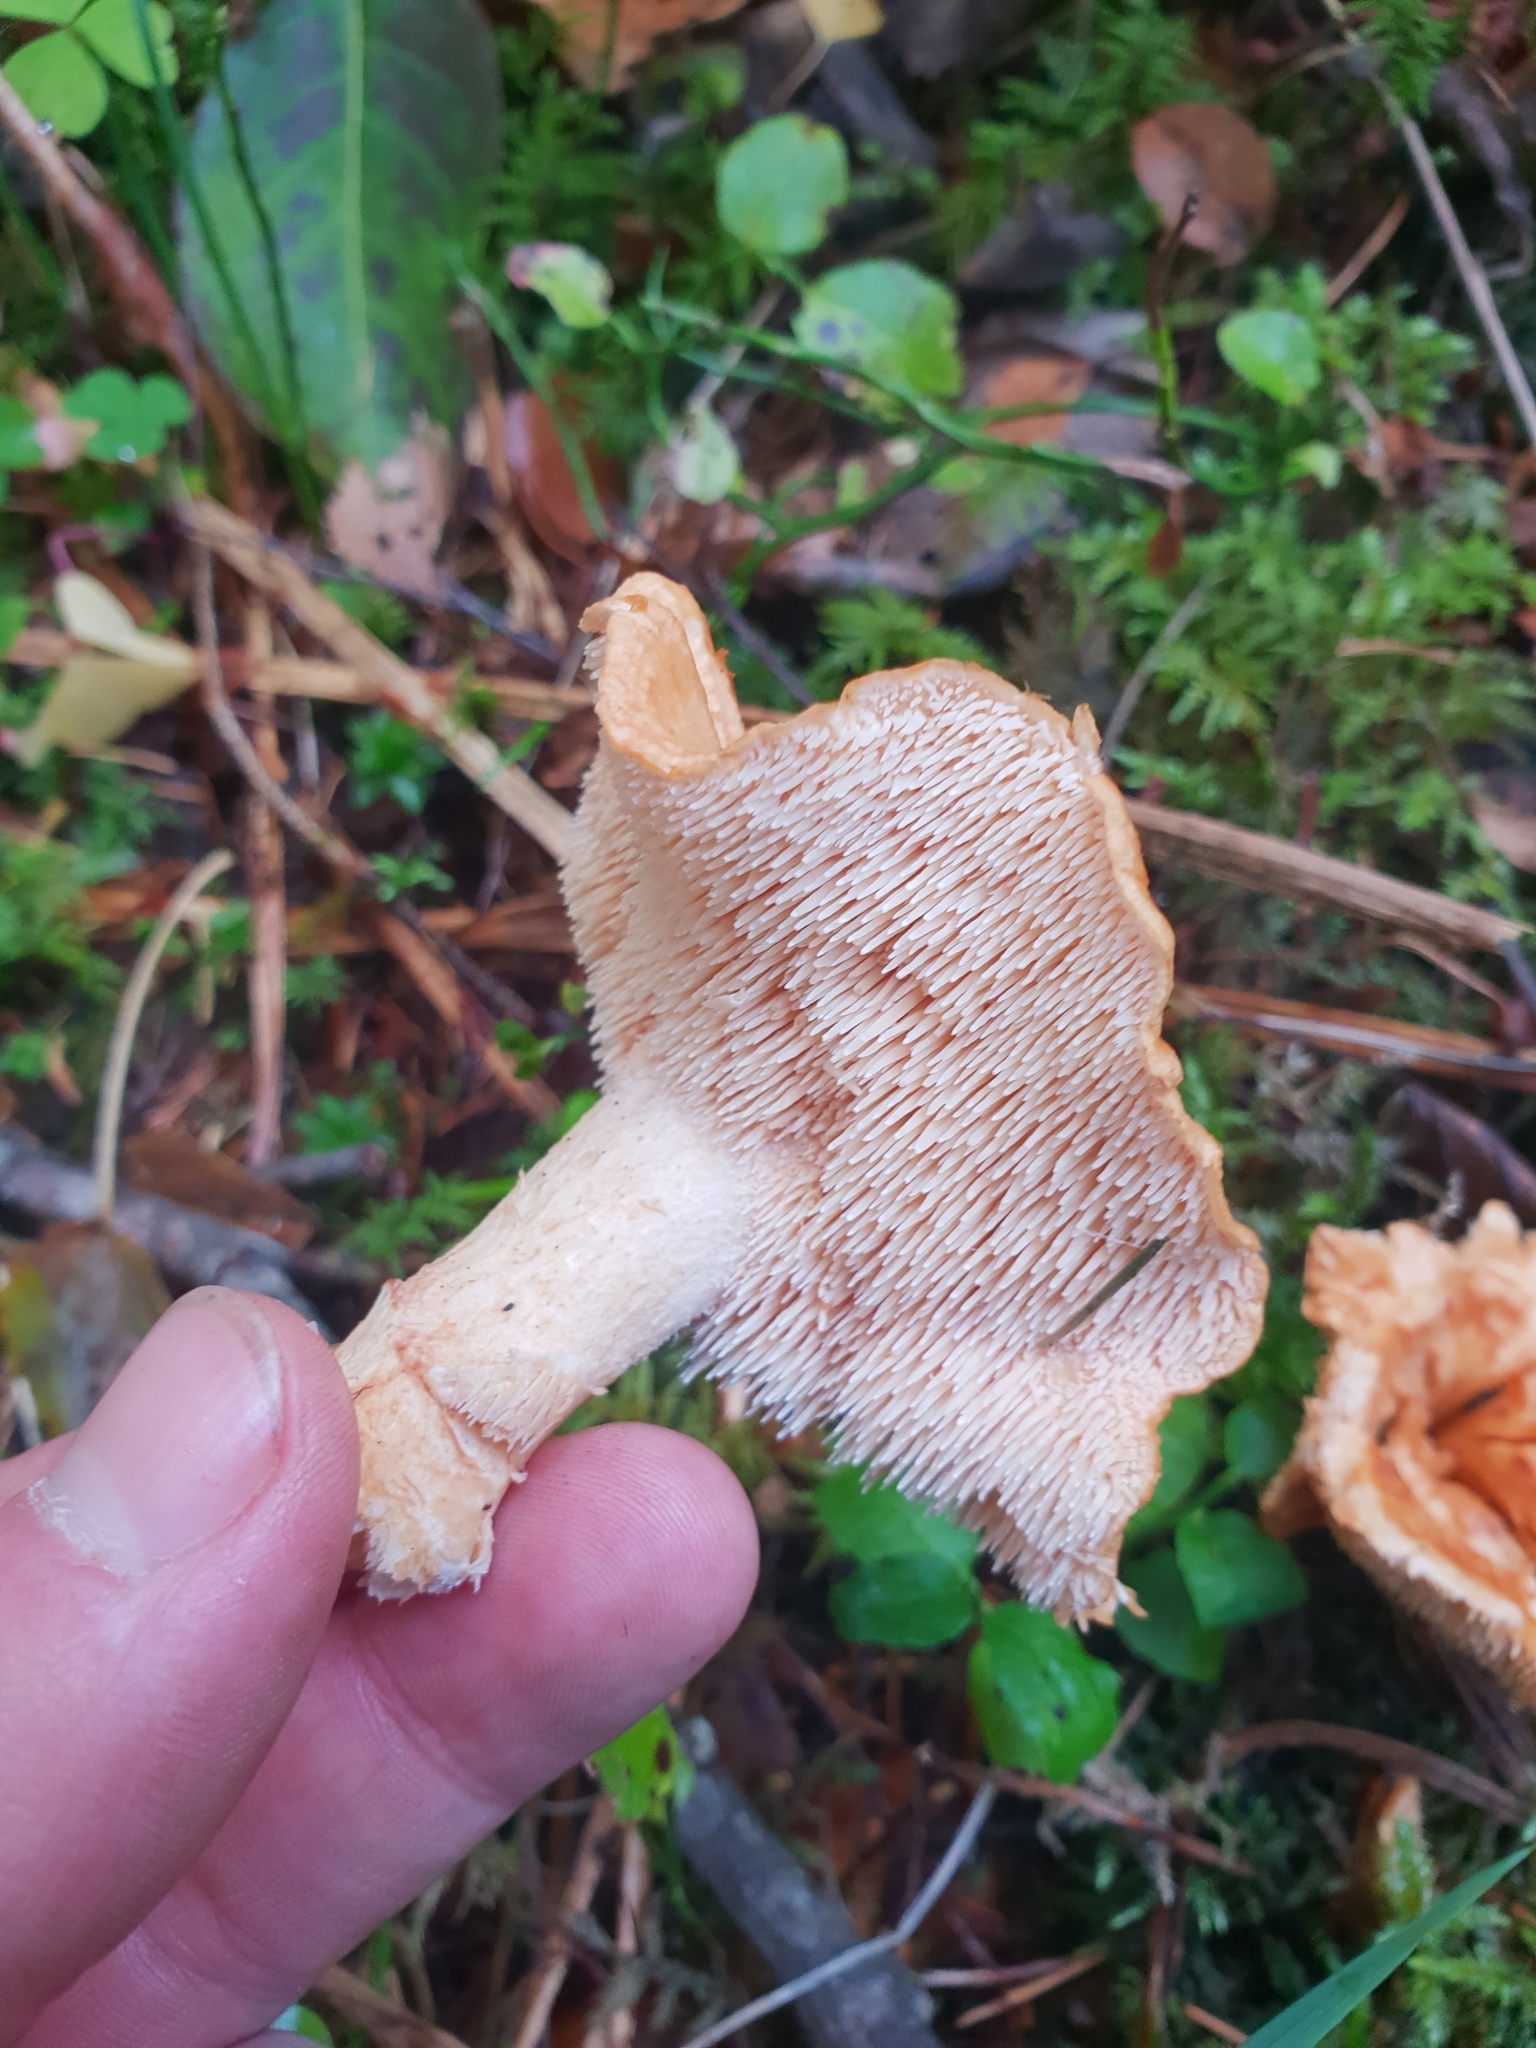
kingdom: Fungi
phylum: Basidiomycota
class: Agaricomycetes
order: Cantharellales
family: Hydnaceae
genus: Hydnum
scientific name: Hydnum rufescens
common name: Terracotta hedgehog
